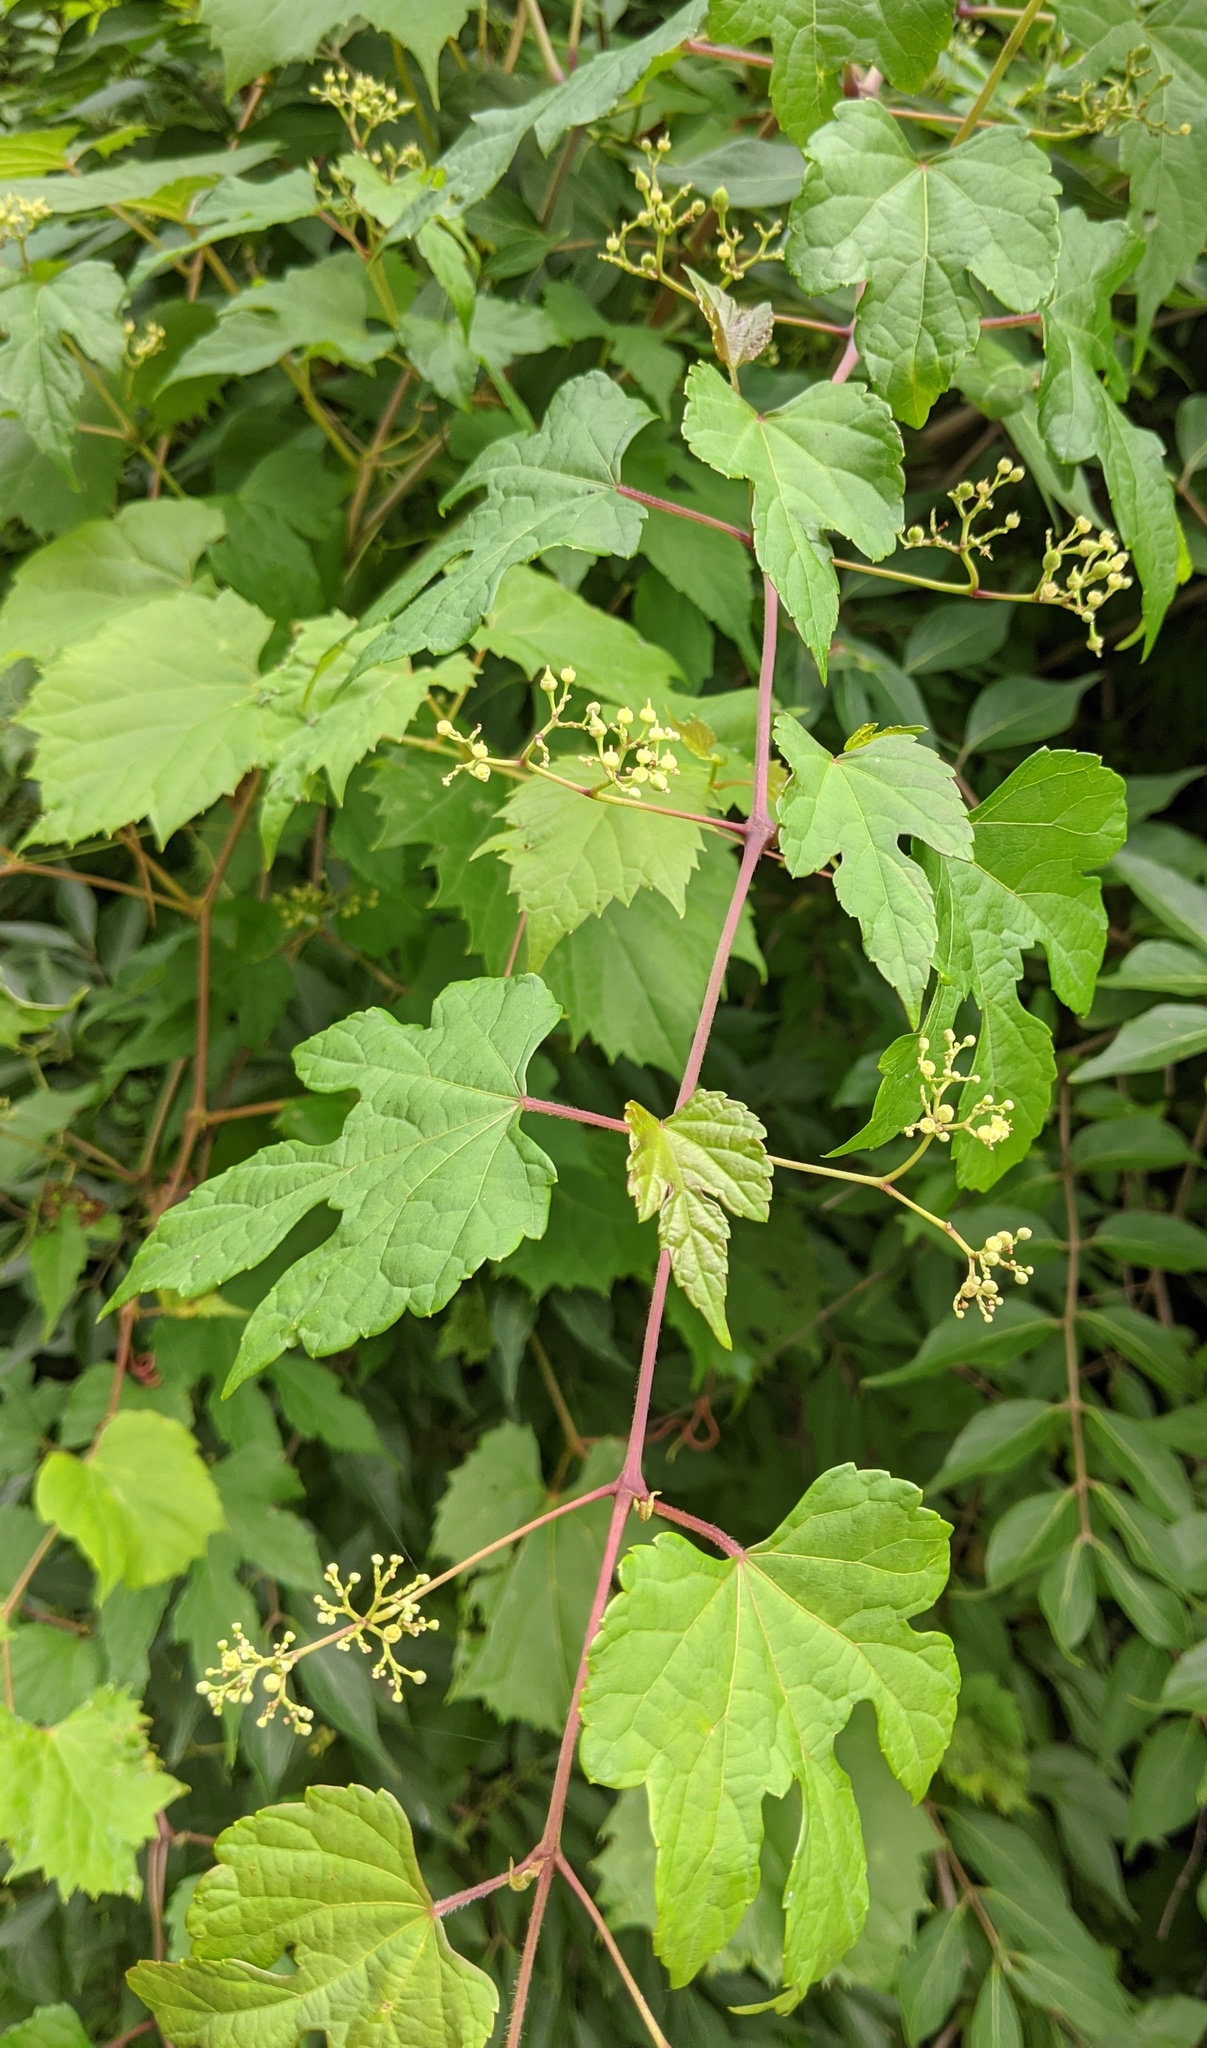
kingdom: Plantae
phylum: Tracheophyta
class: Magnoliopsida
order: Vitales
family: Vitaceae
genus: Ampelopsis
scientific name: Ampelopsis glandulosa
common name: Amur peppervine
